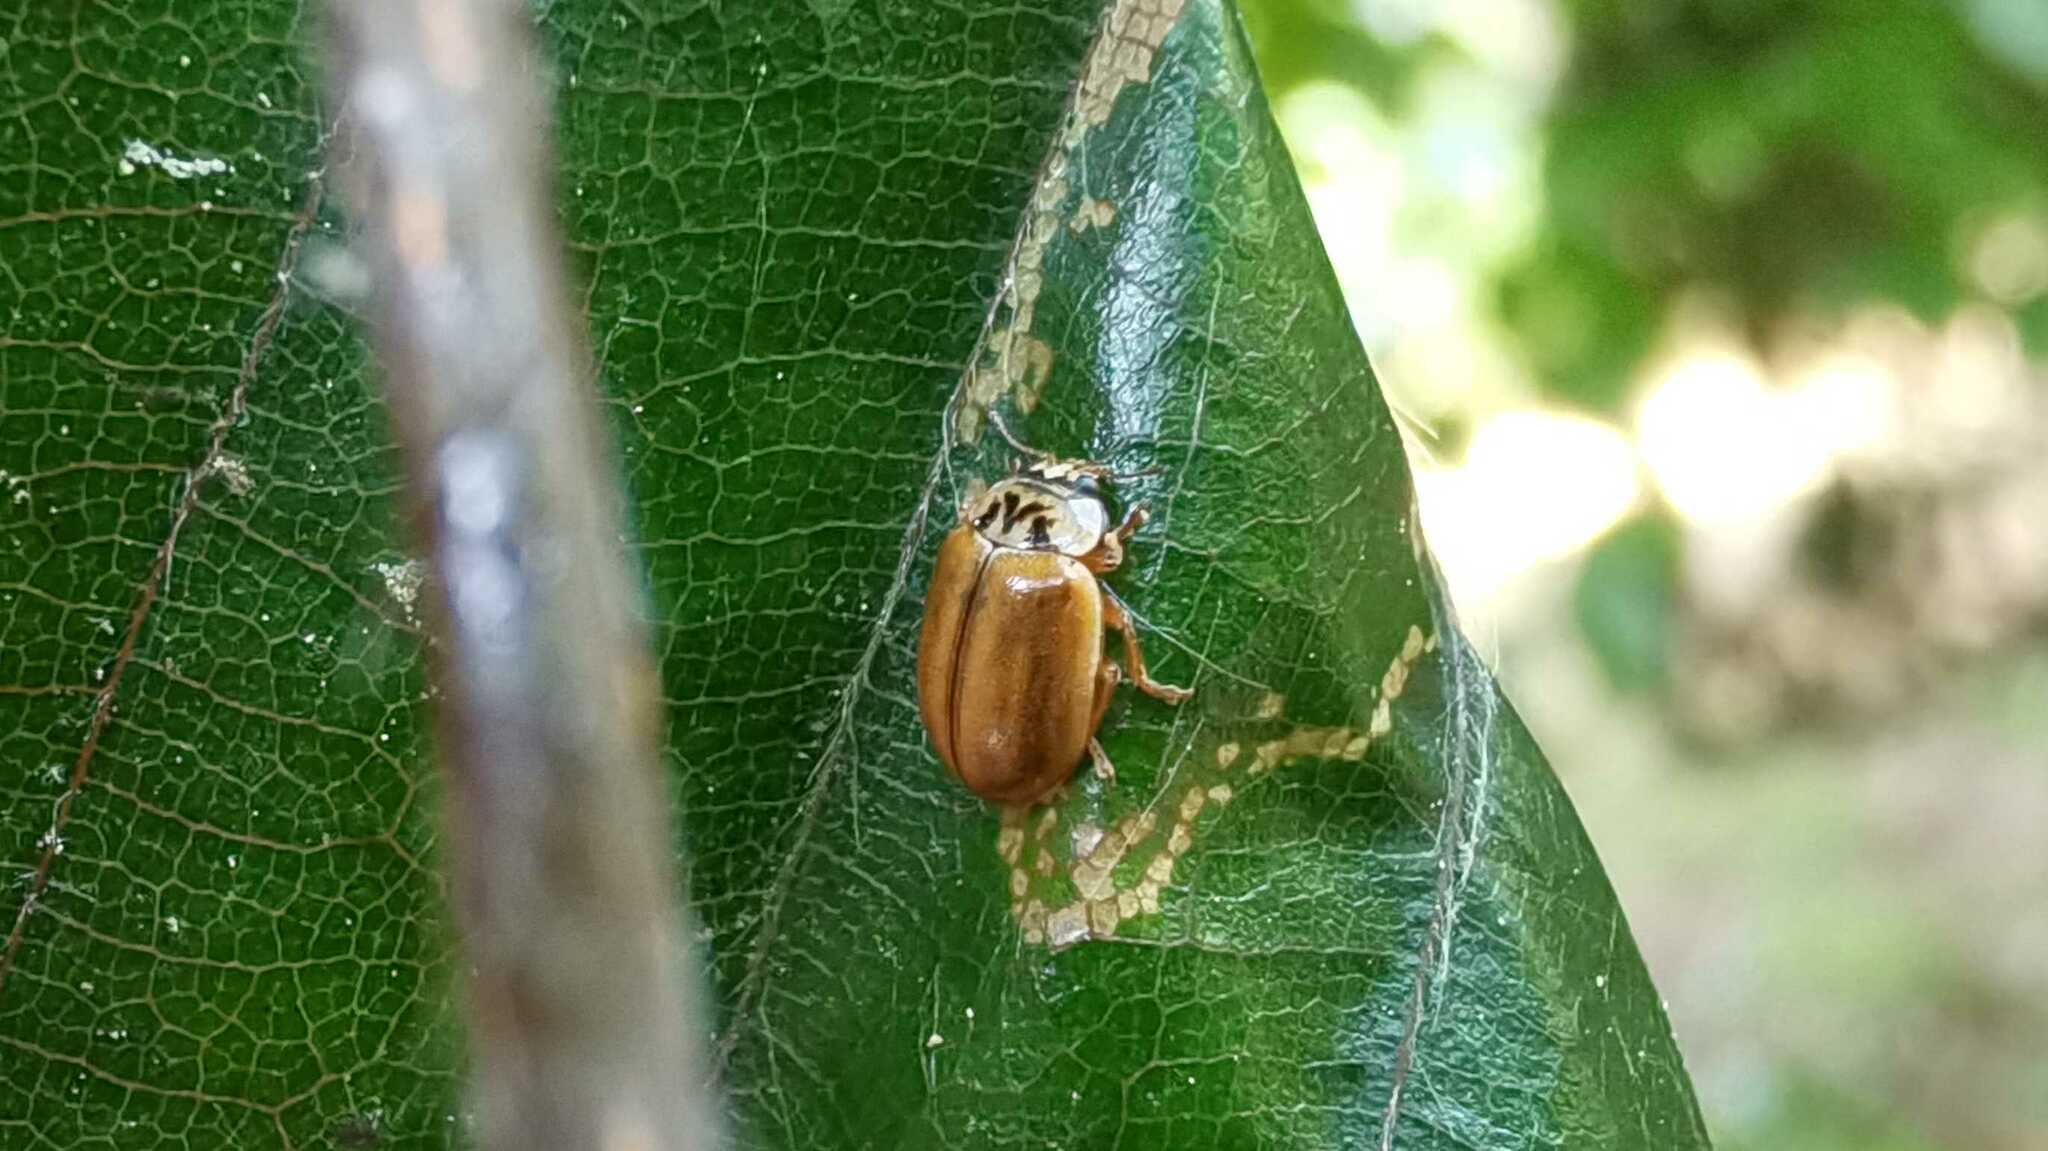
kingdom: Animalia
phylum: Arthropoda
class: Insecta
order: Coleoptera
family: Coccinellidae
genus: Aphidecta
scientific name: Aphidecta obliterata
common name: Larch ladybird
